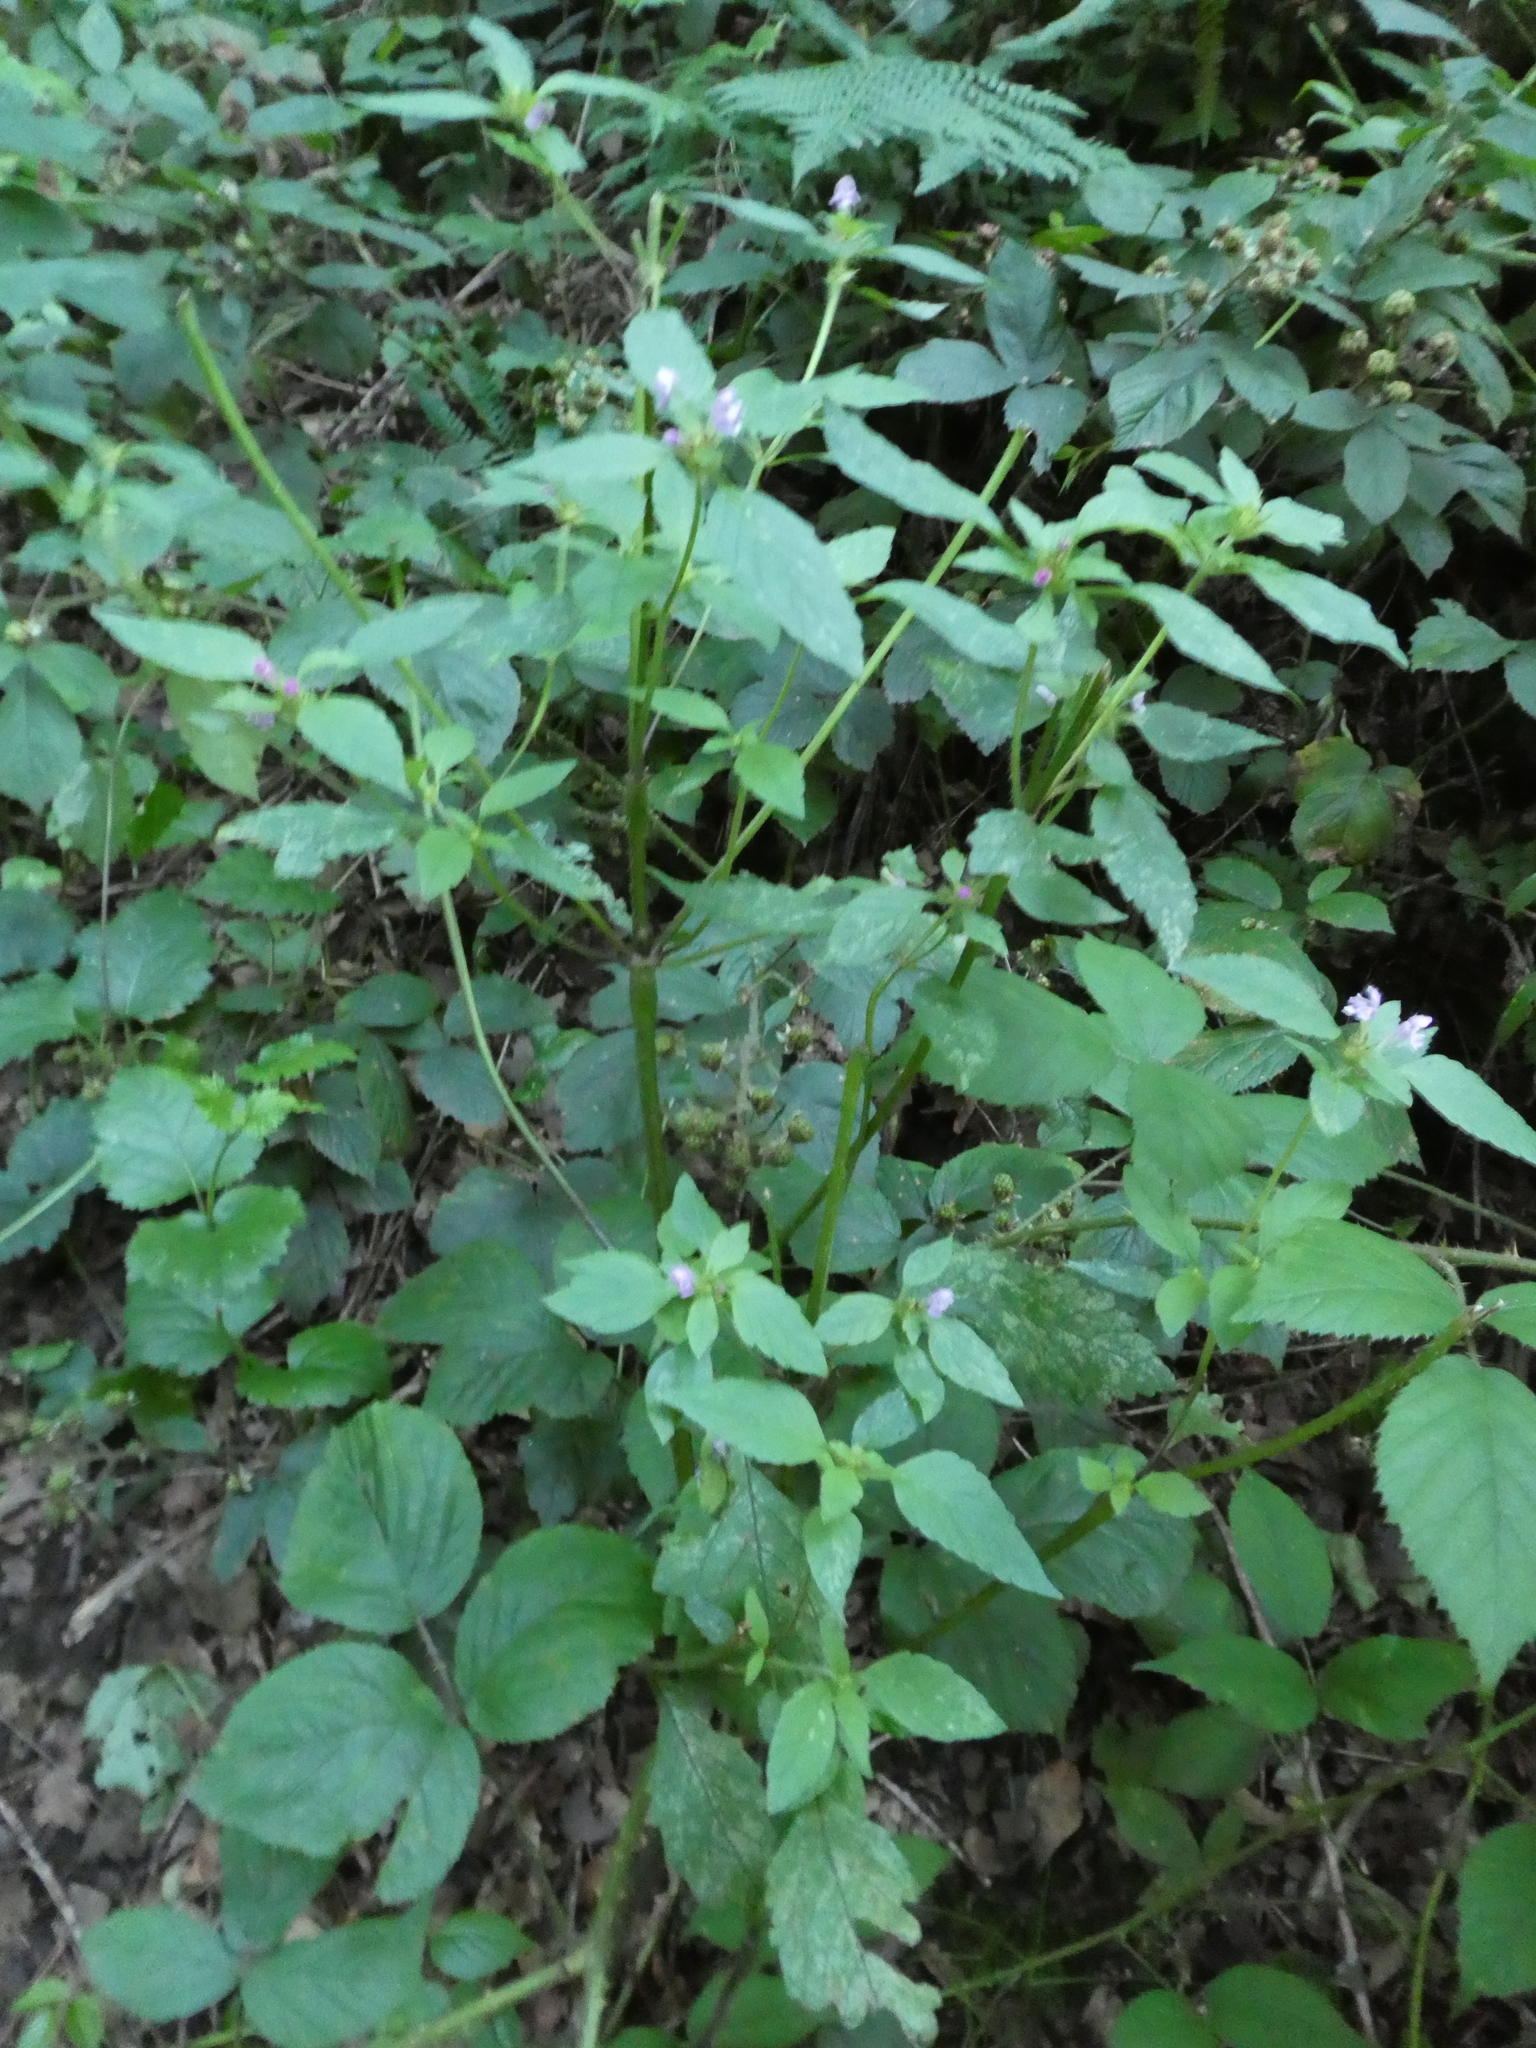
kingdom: Plantae
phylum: Tracheophyta
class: Magnoliopsida
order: Lamiales
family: Lamiaceae
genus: Galeopsis
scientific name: Galeopsis bifida
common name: Bifid hemp-nettle
